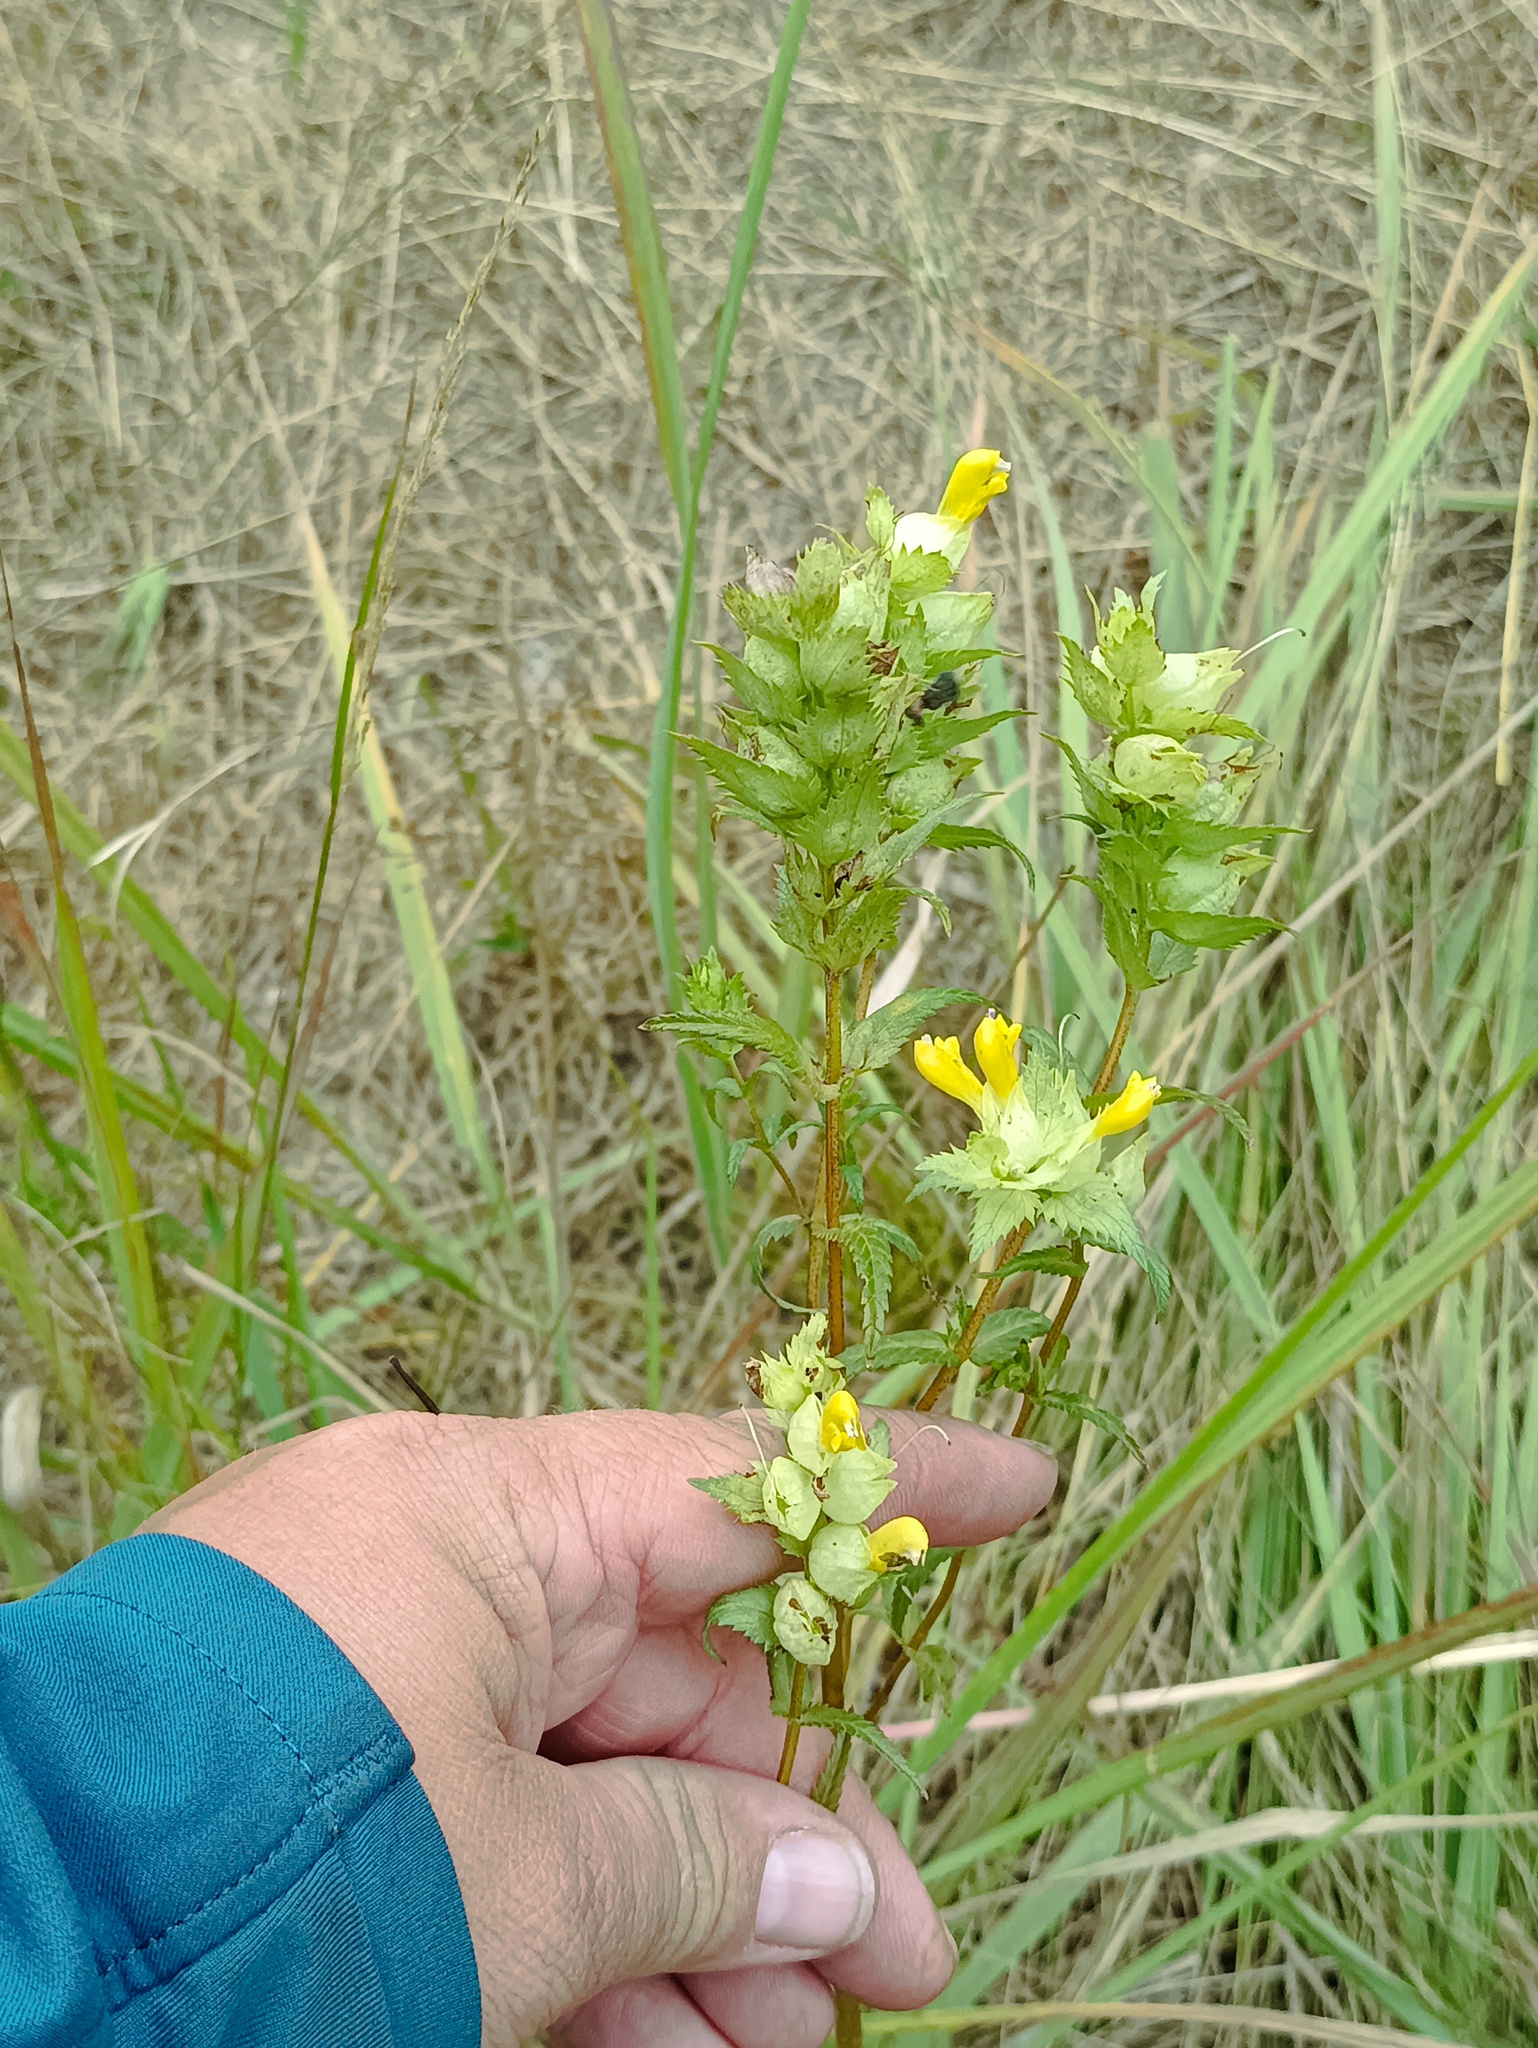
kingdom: Plantae
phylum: Tracheophyta
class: Magnoliopsida
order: Lamiales
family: Orobanchaceae
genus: Rhinanthus
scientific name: Rhinanthus serotinus
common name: Late-flowering yellow rattle
